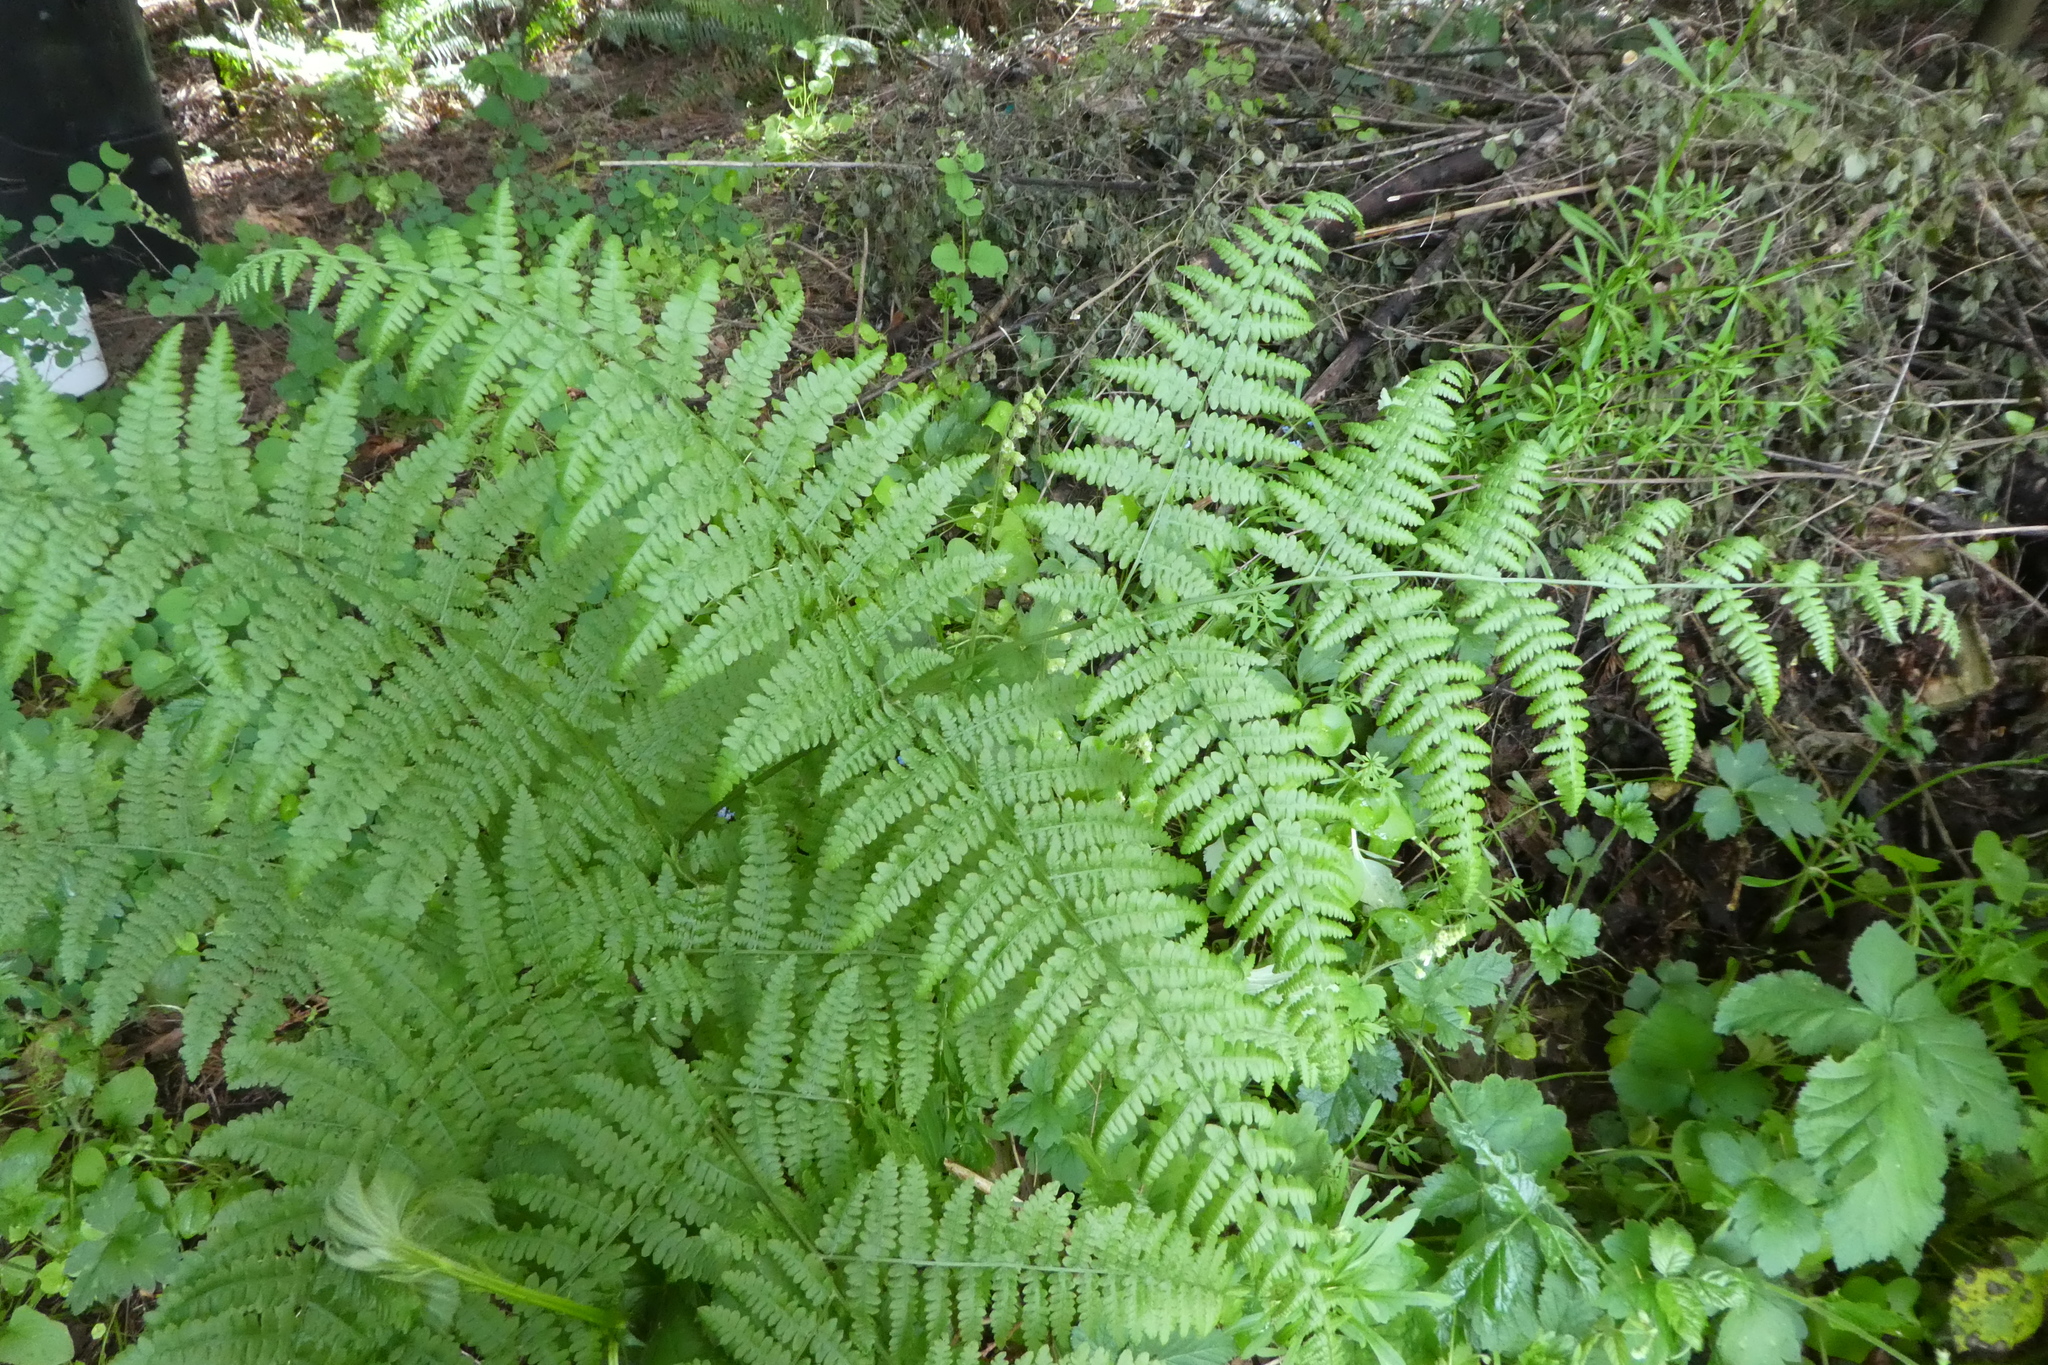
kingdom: Plantae
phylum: Tracheophyta
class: Polypodiopsida
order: Polypodiales
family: Dennstaedtiaceae
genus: Pteridium
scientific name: Pteridium aquilinum
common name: Bracken
